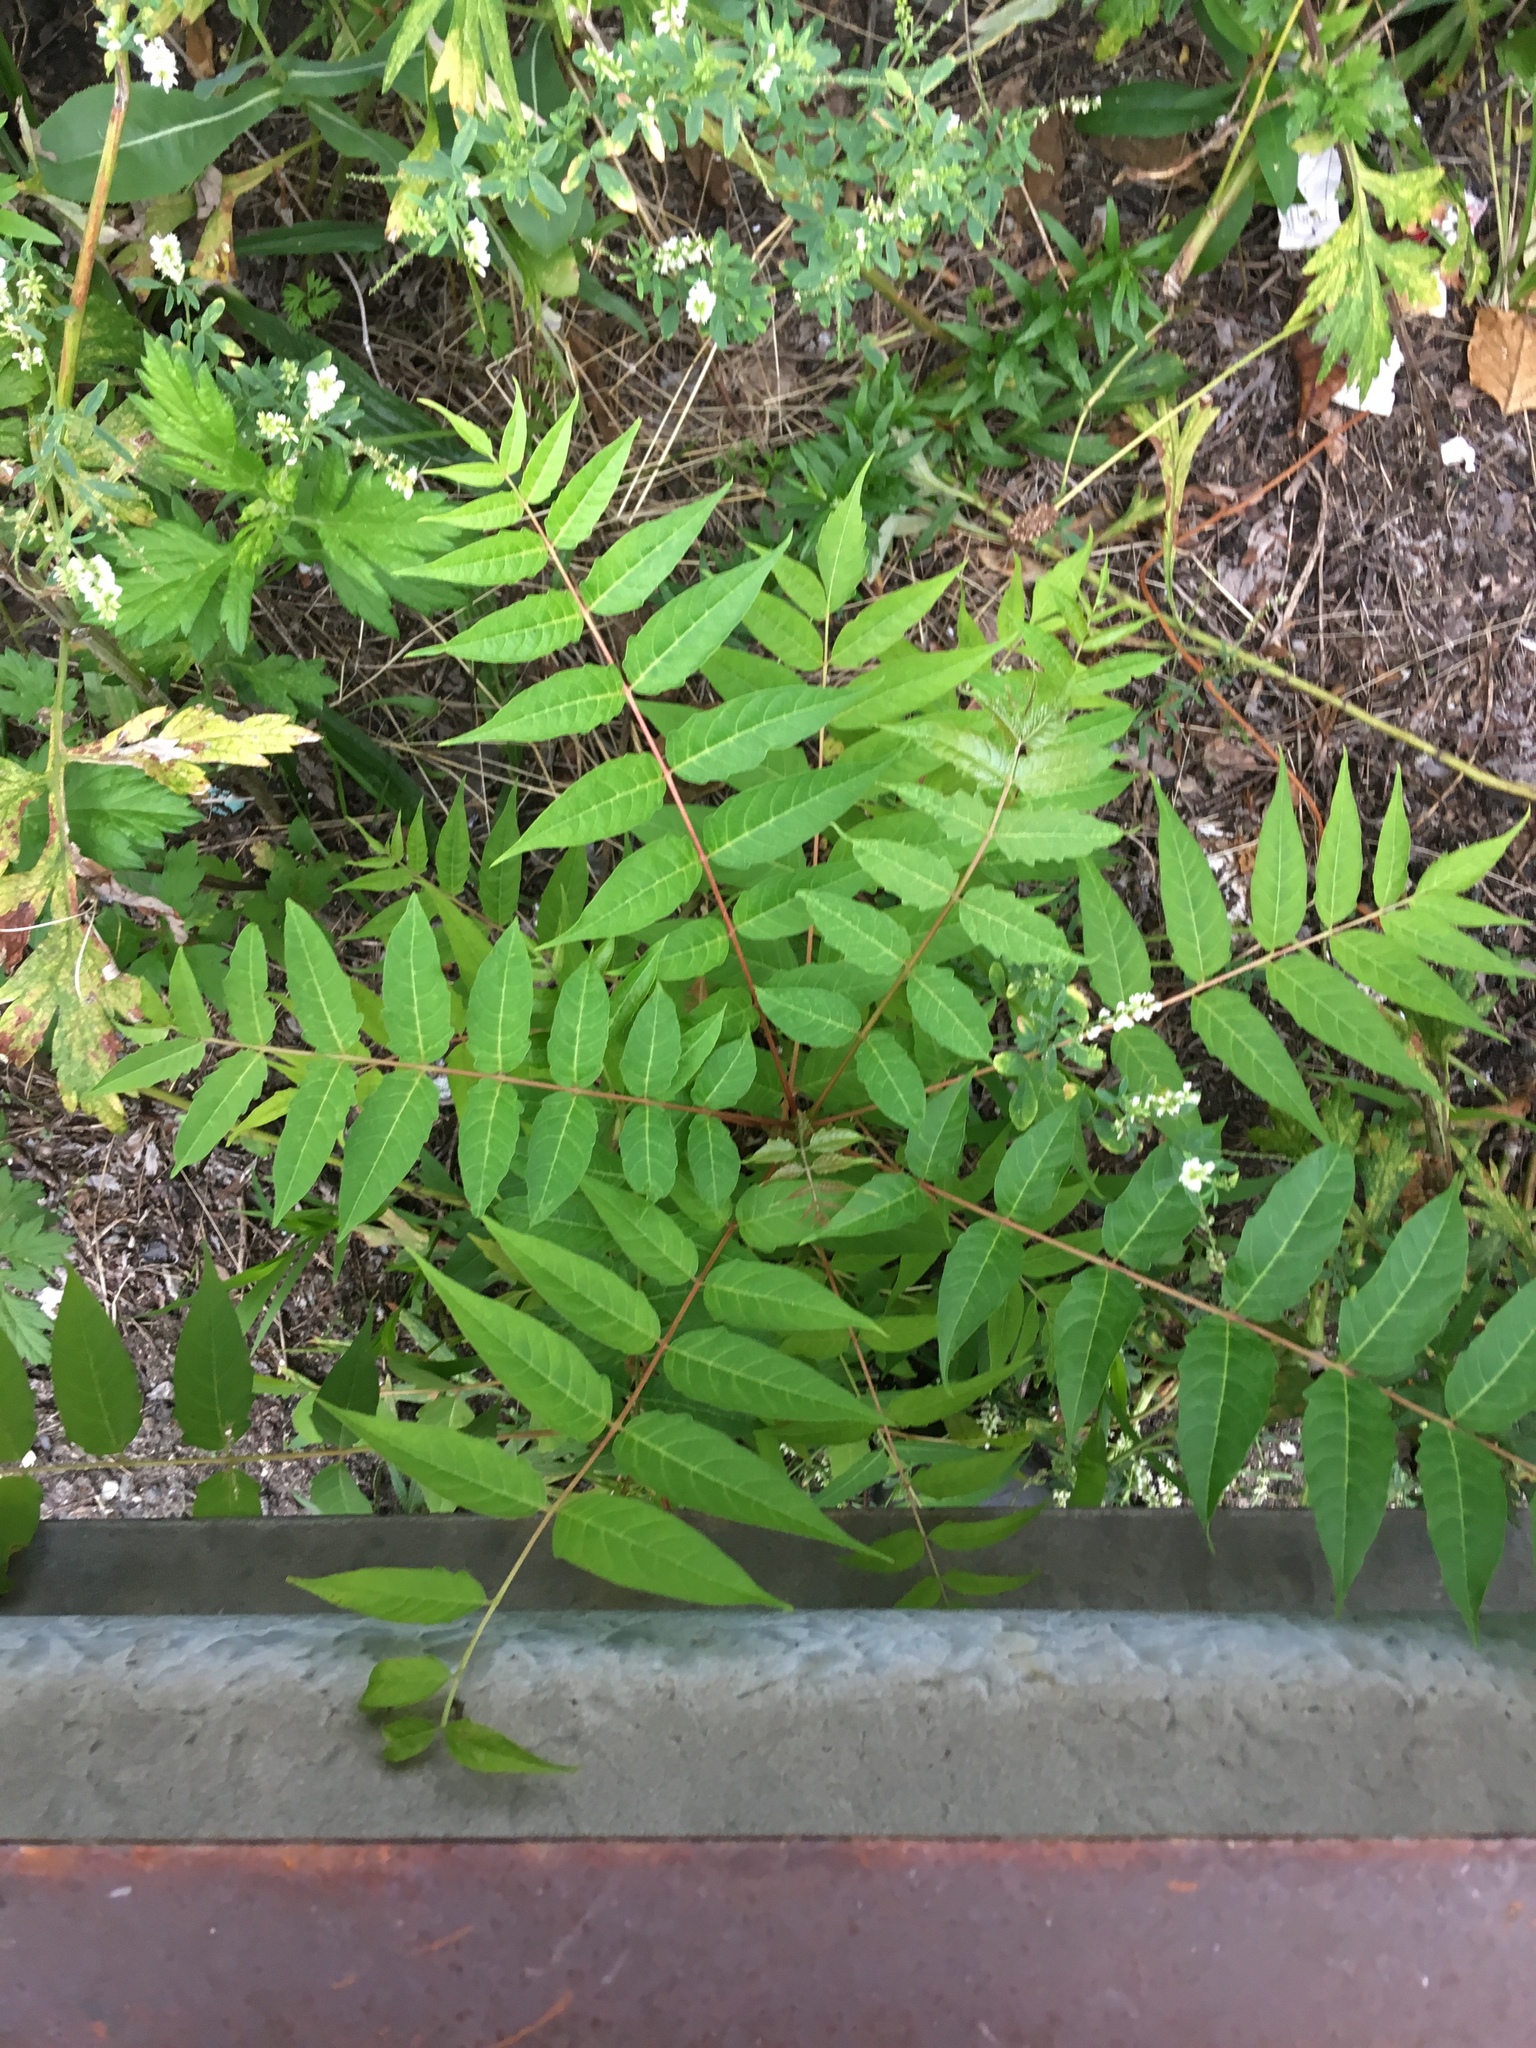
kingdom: Plantae
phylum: Tracheophyta
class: Magnoliopsida
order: Sapindales
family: Simaroubaceae
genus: Ailanthus
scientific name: Ailanthus altissima
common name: Tree-of-heaven
